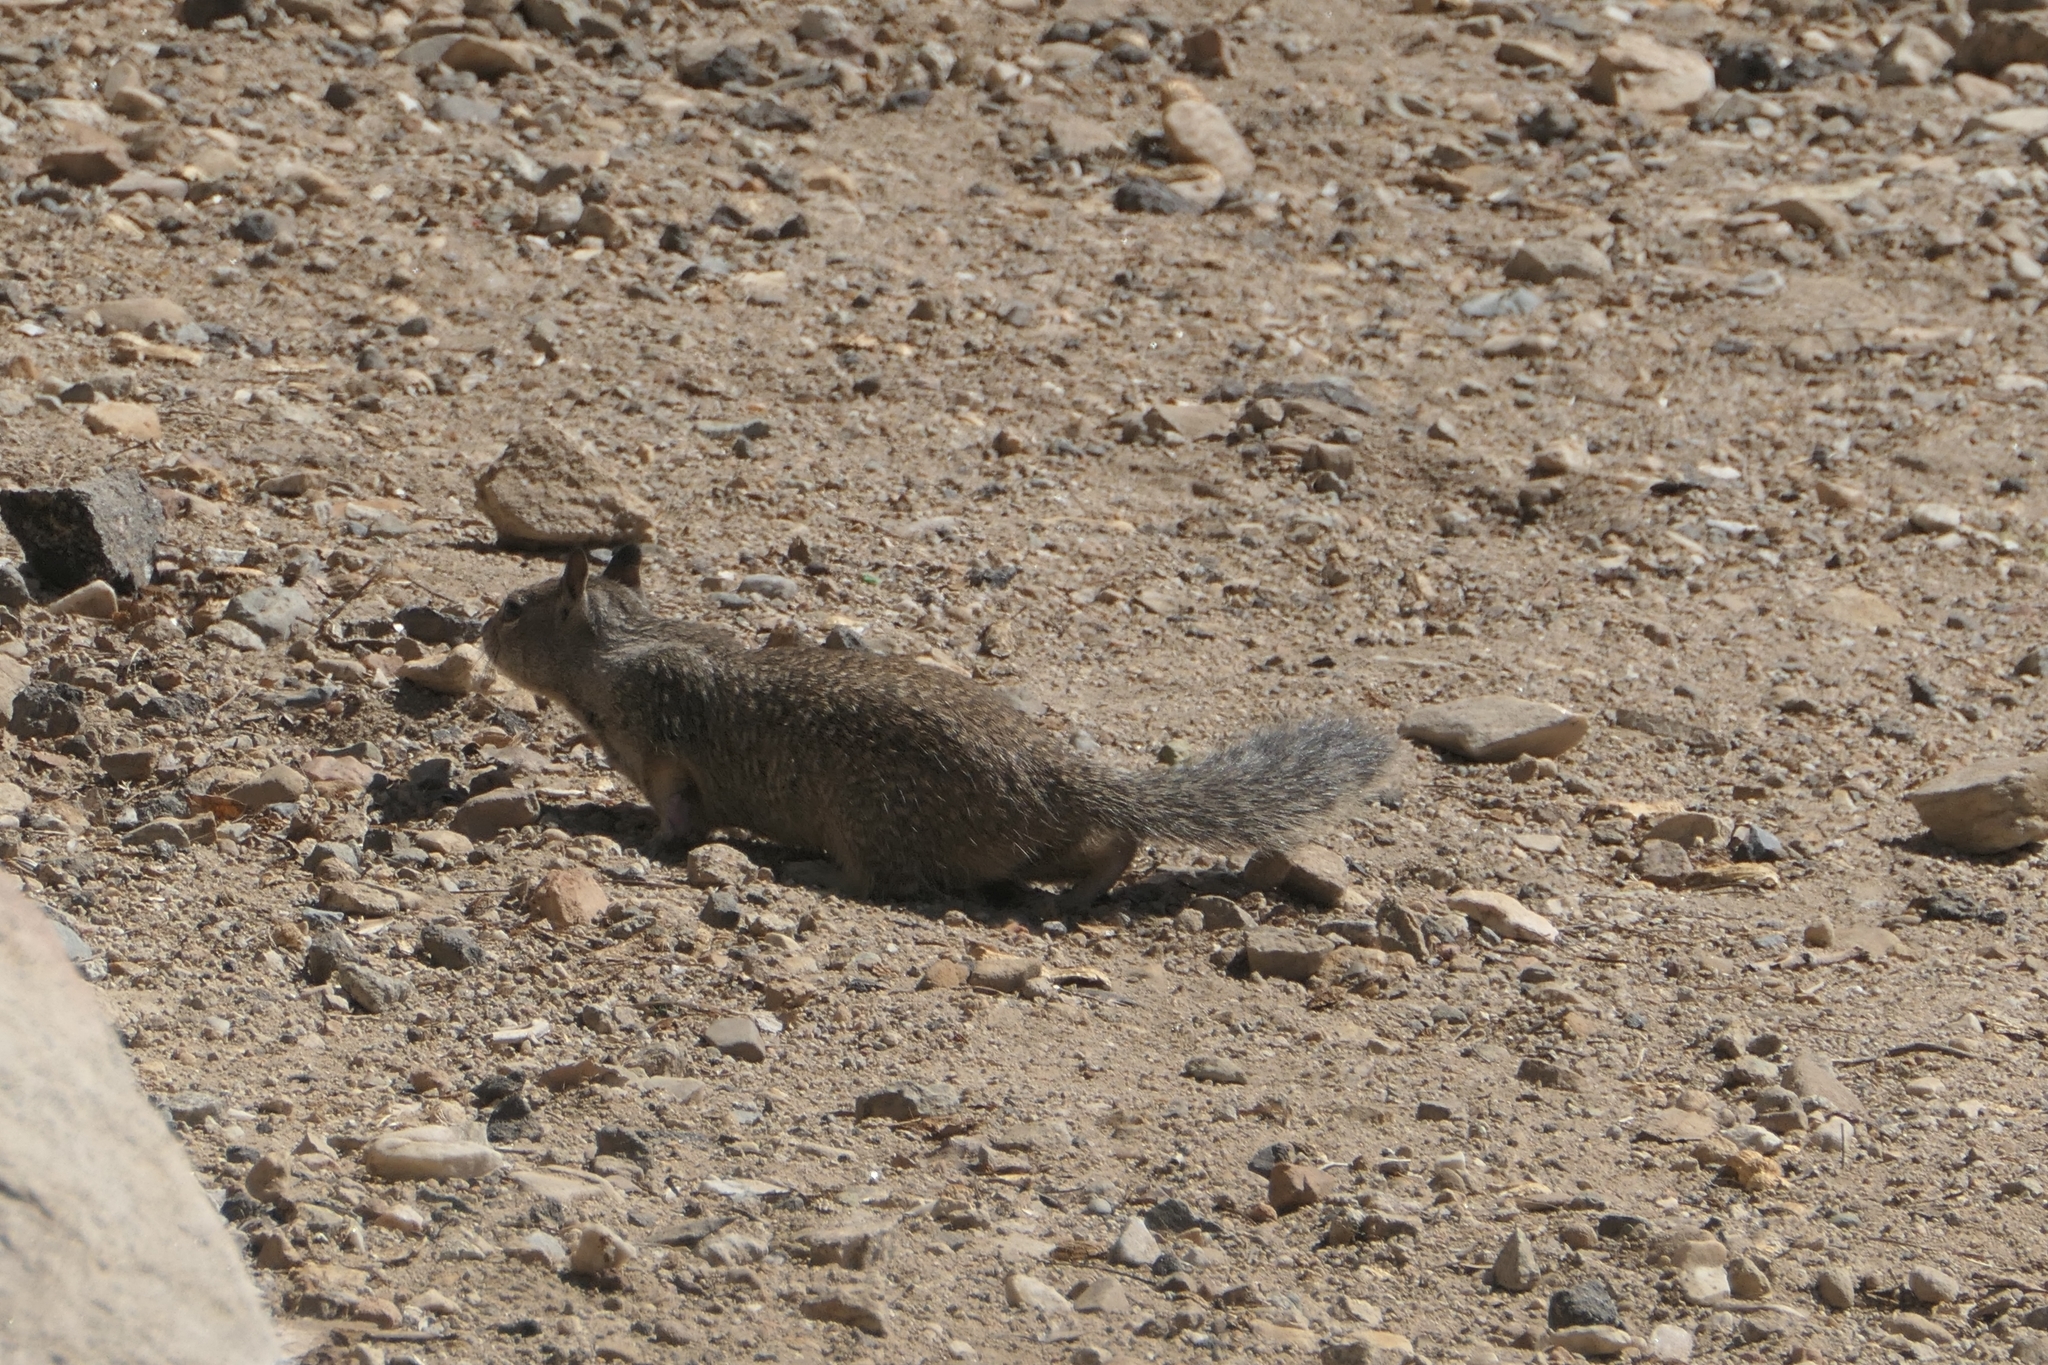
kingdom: Animalia
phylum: Chordata
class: Mammalia
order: Rodentia
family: Sciuridae
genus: Otospermophilus
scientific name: Otospermophilus beecheyi
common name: California ground squirrel
